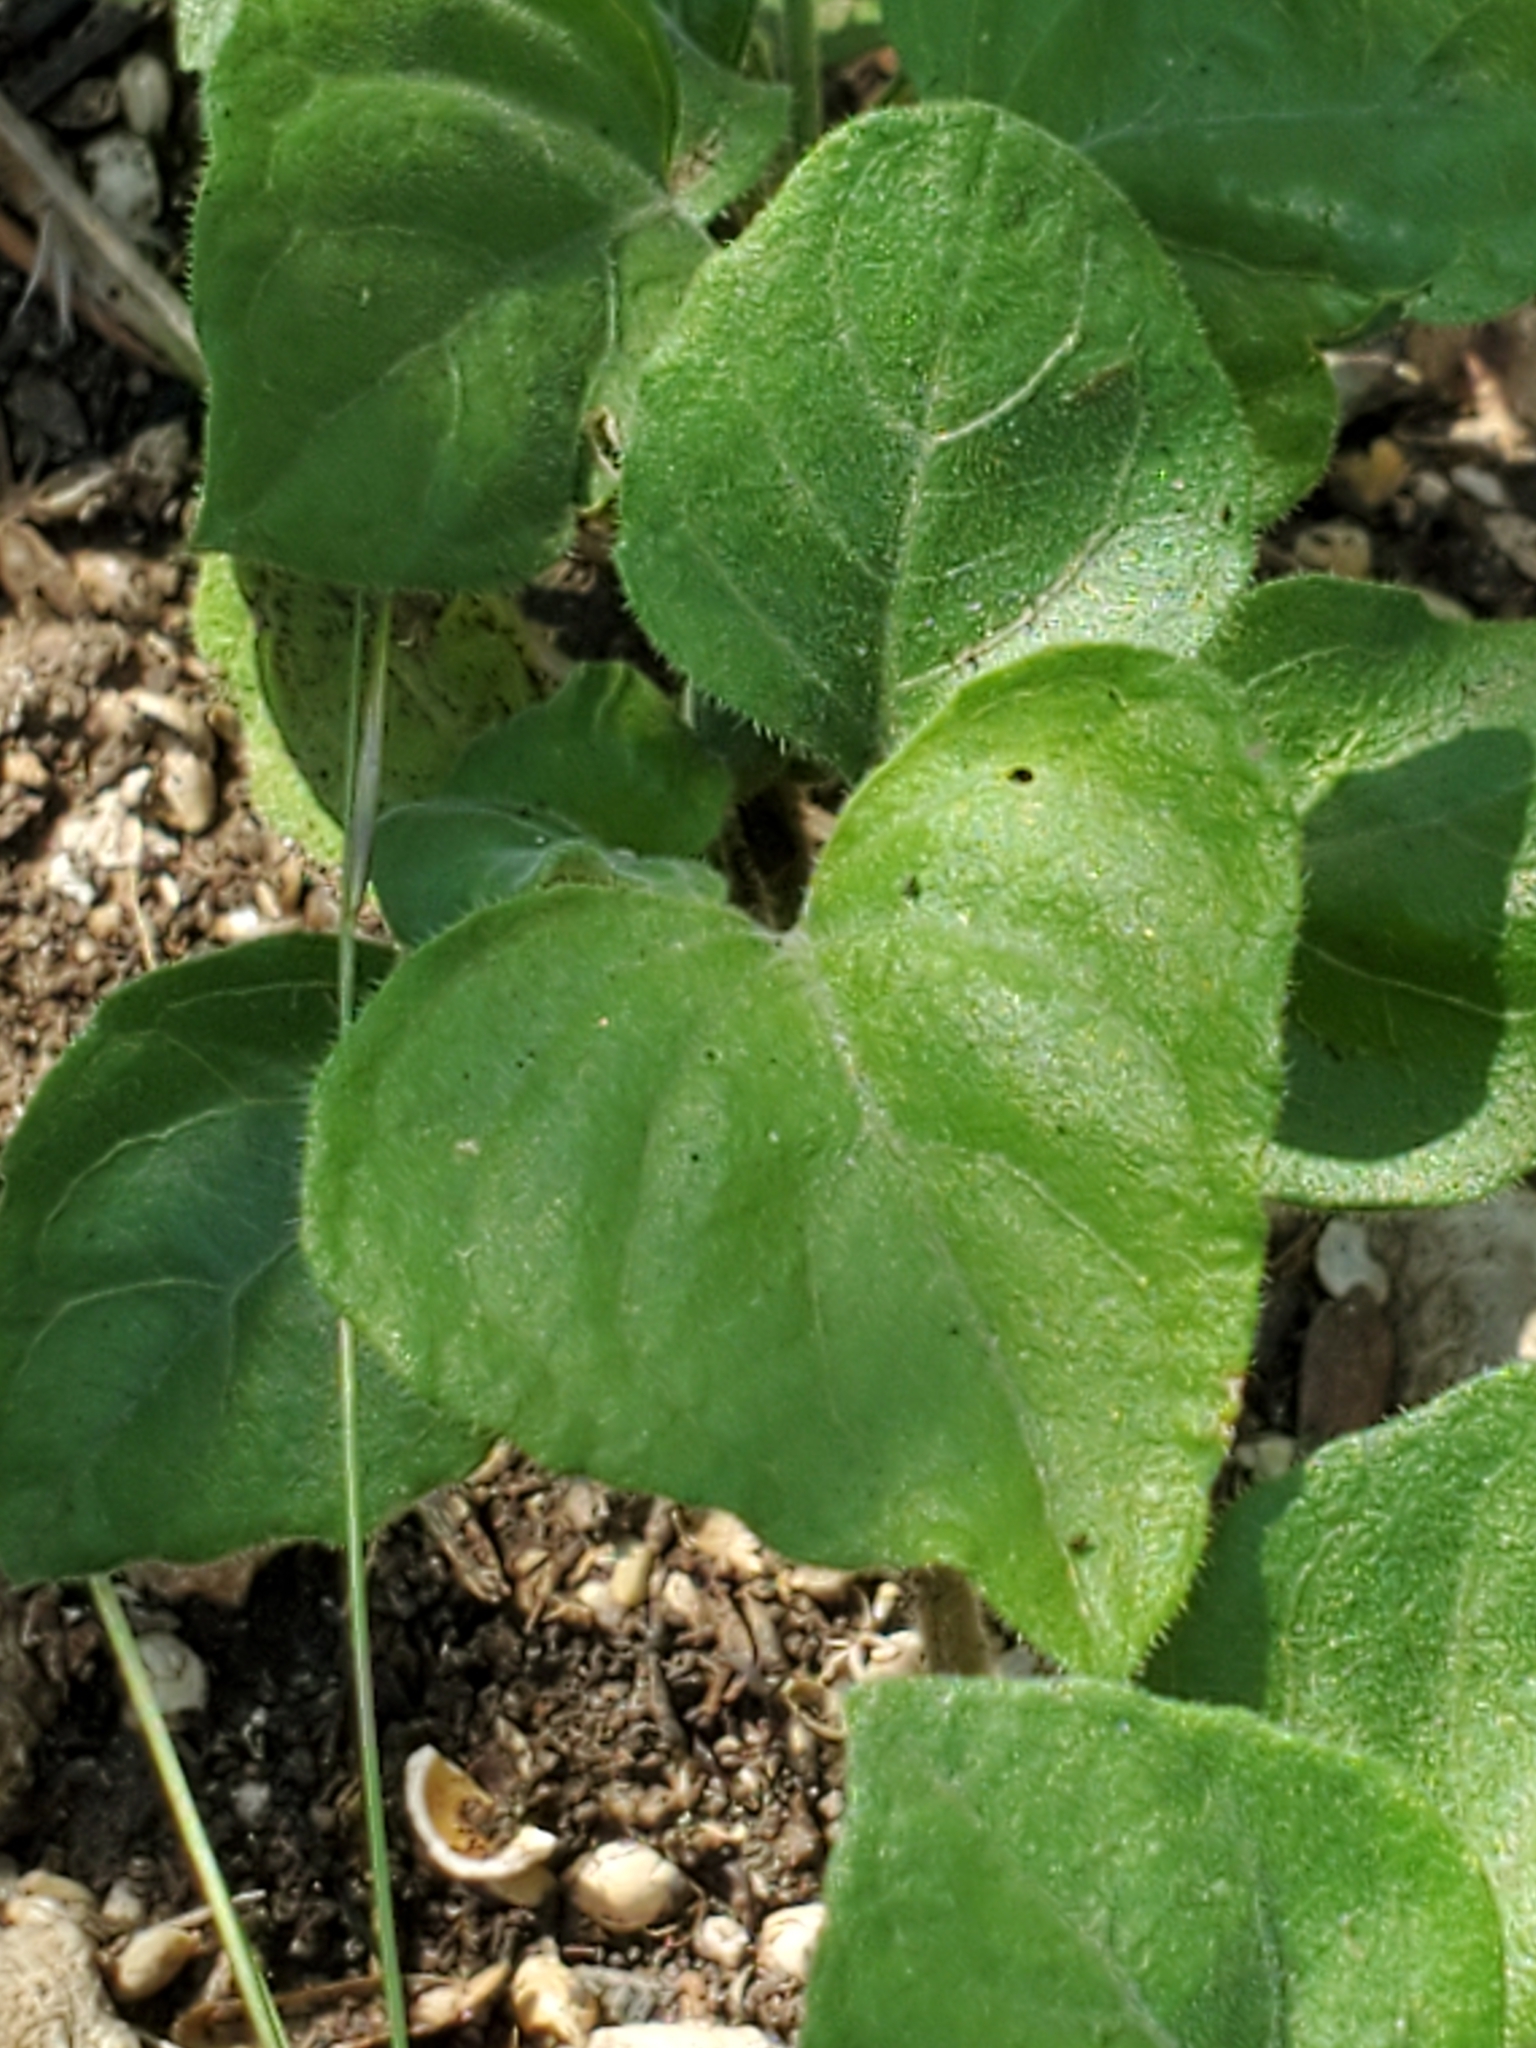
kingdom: Plantae
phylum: Tracheophyta
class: Magnoliopsida
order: Lamiales
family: Acanthaceae
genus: Carlowrightia
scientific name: Carlowrightia torreyana
